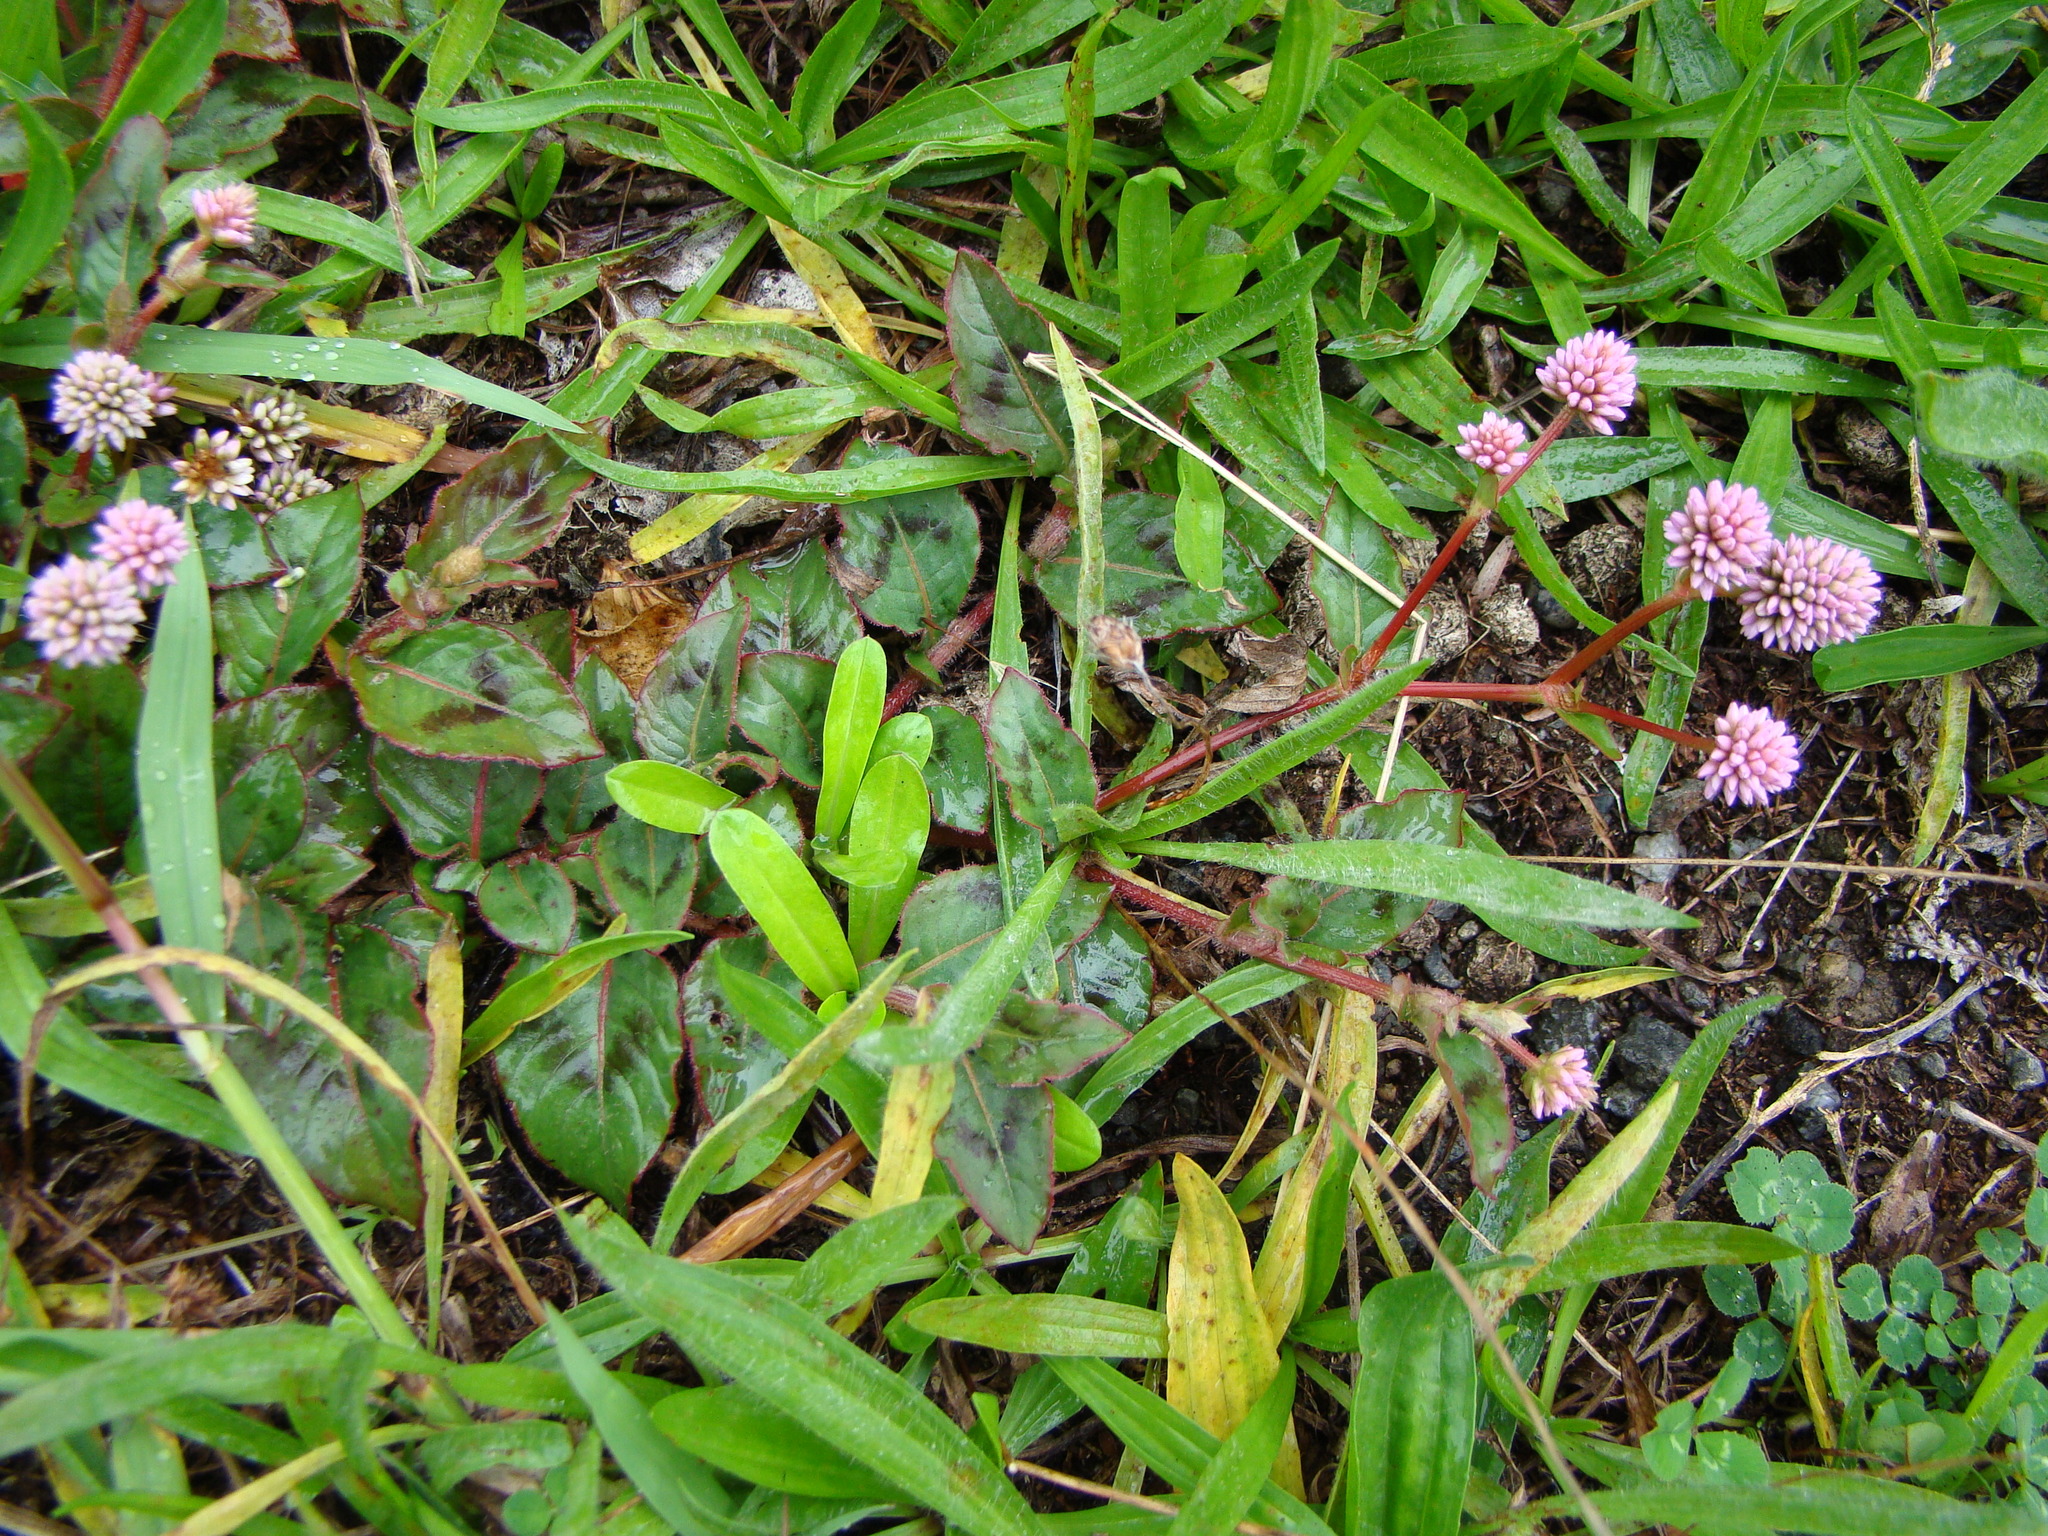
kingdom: Plantae
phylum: Tracheophyta
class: Magnoliopsida
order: Caryophyllales
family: Polygonaceae
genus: Persicaria
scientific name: Persicaria capitata
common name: Pinkhead smartweed
